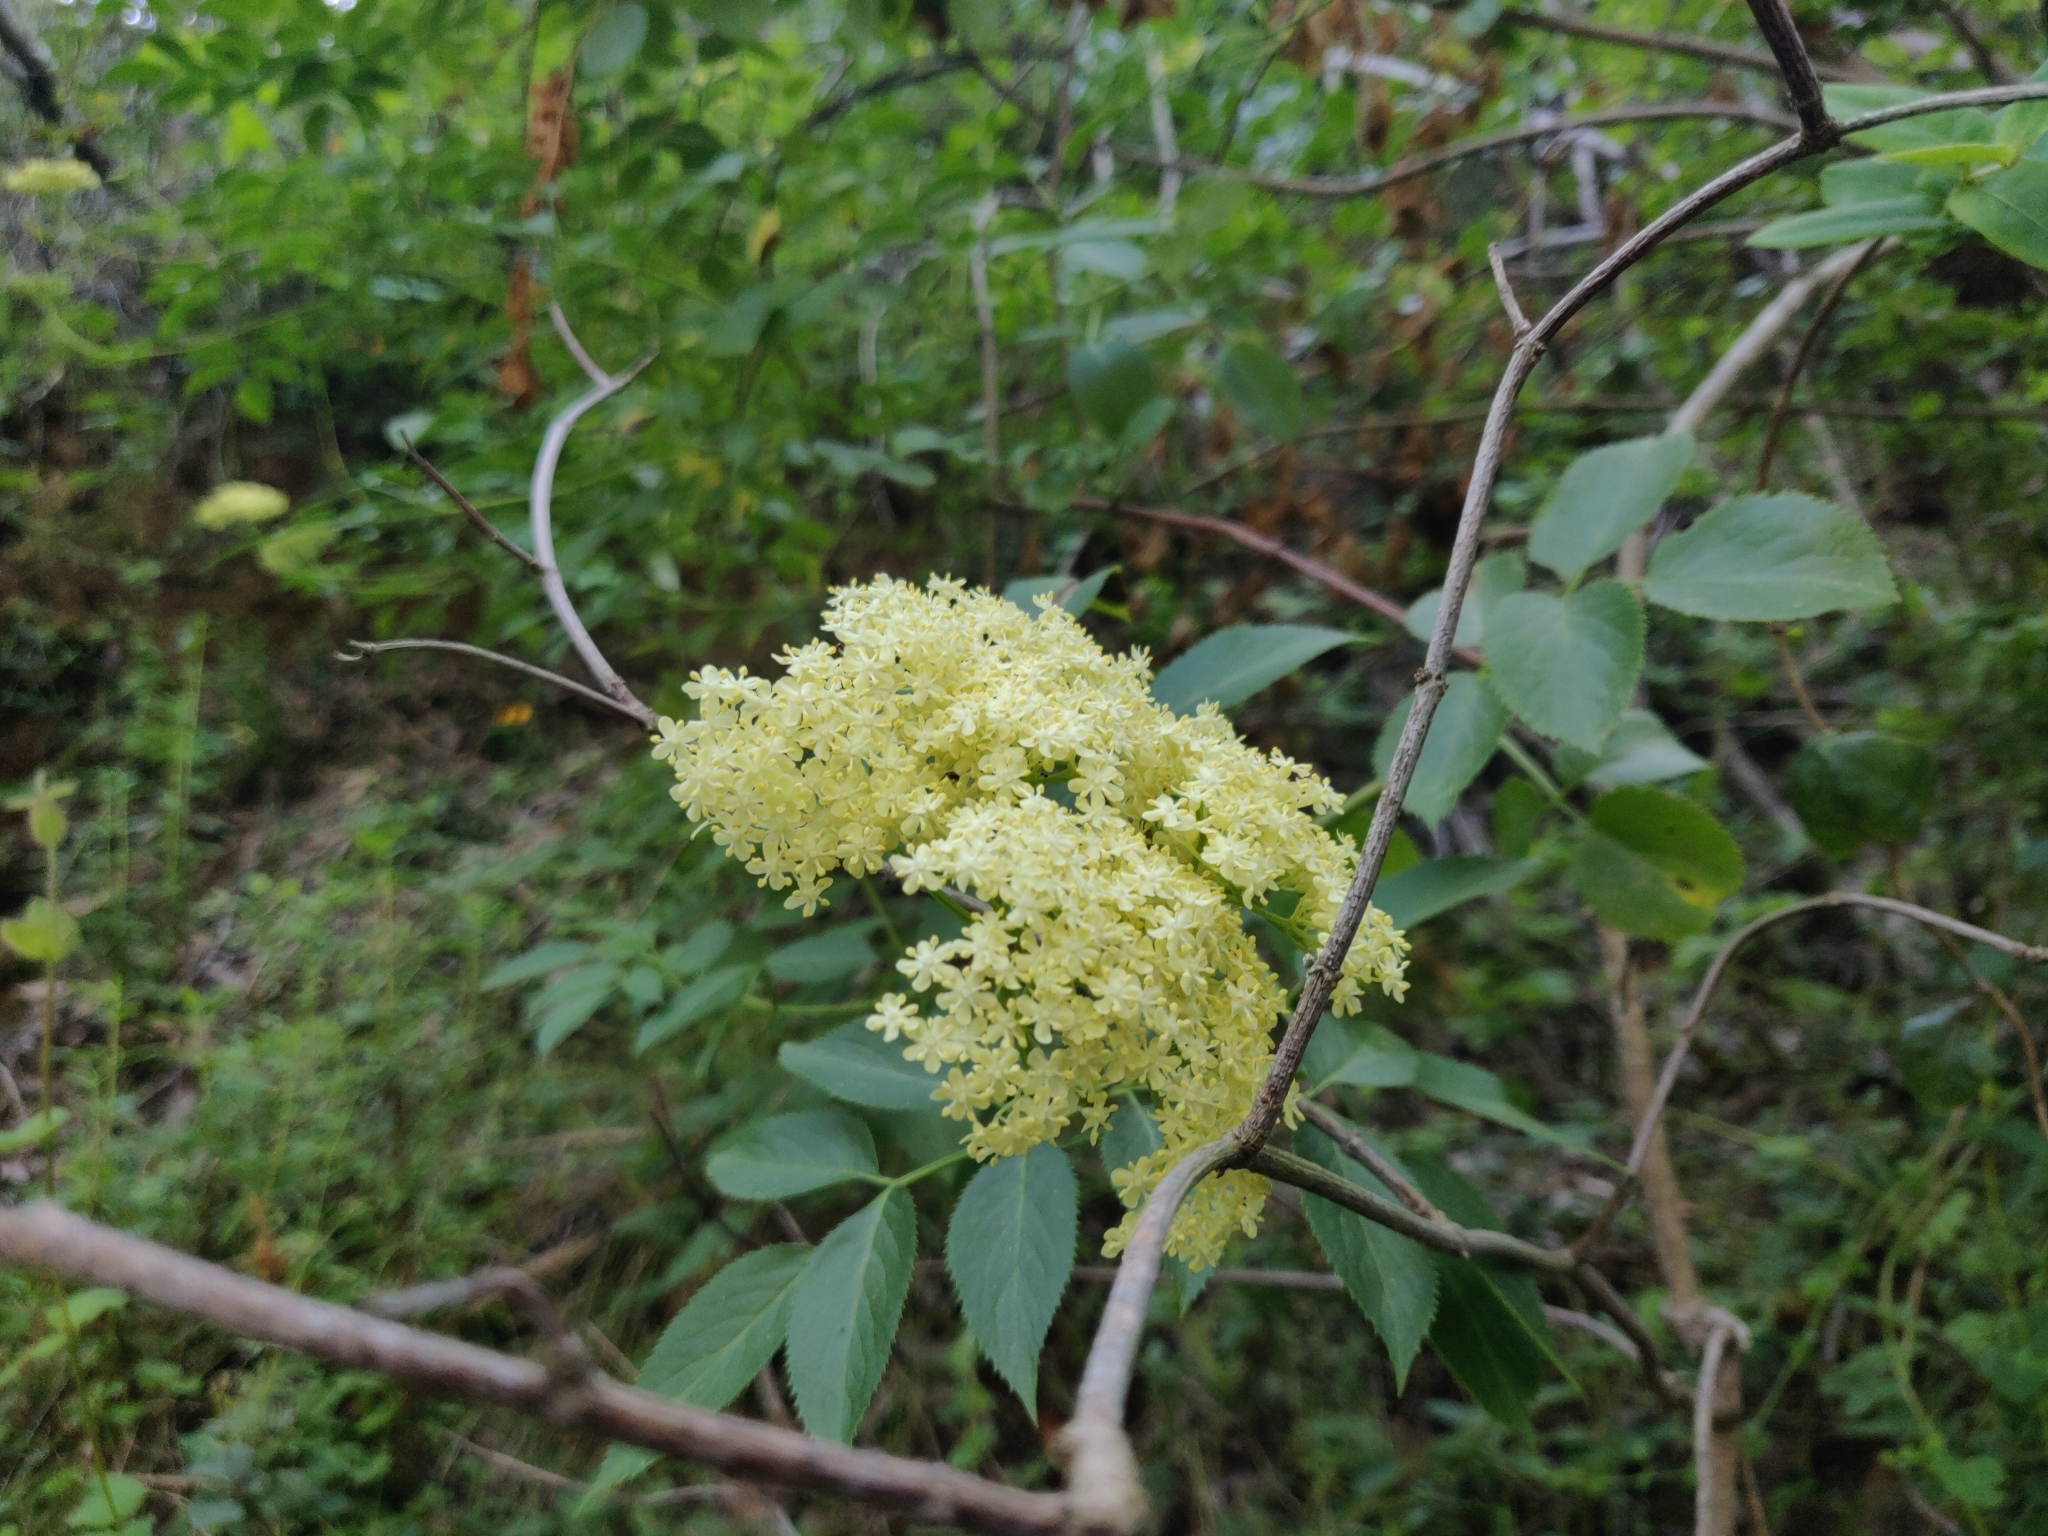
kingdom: Plantae
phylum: Tracheophyta
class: Magnoliopsida
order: Dipsacales
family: Viburnaceae
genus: Sambucus
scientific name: Sambucus cerulea
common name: Blue elder
